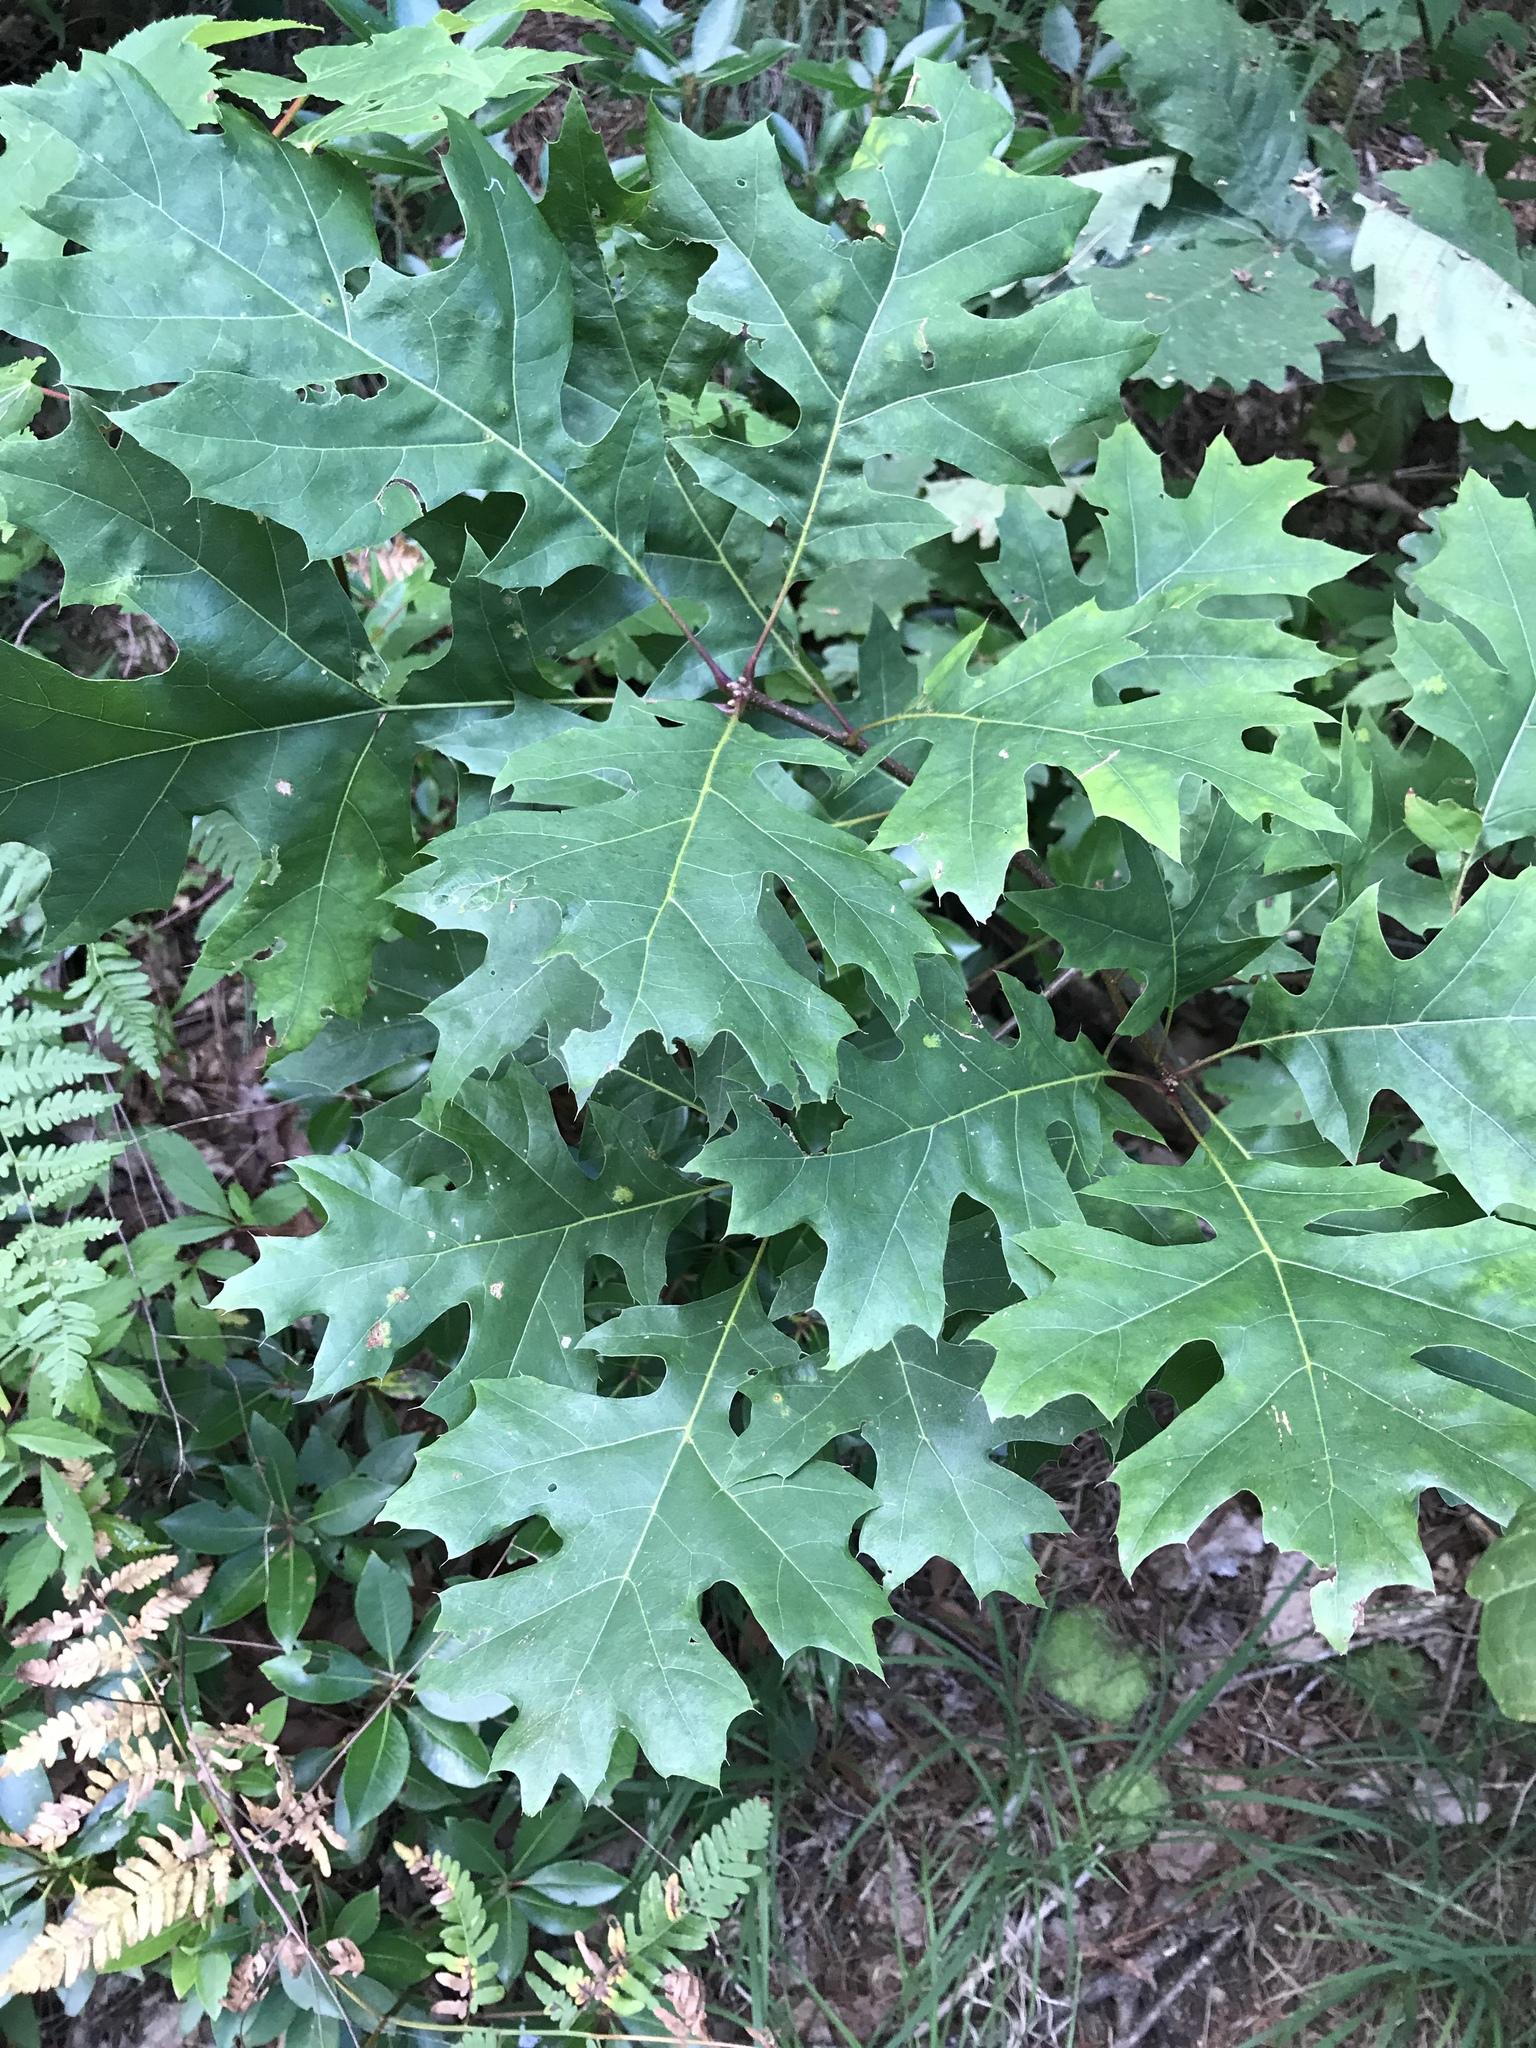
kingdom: Plantae
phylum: Tracheophyta
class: Magnoliopsida
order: Fagales
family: Fagaceae
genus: Quercus
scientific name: Quercus coccinea
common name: Scarlet oak
